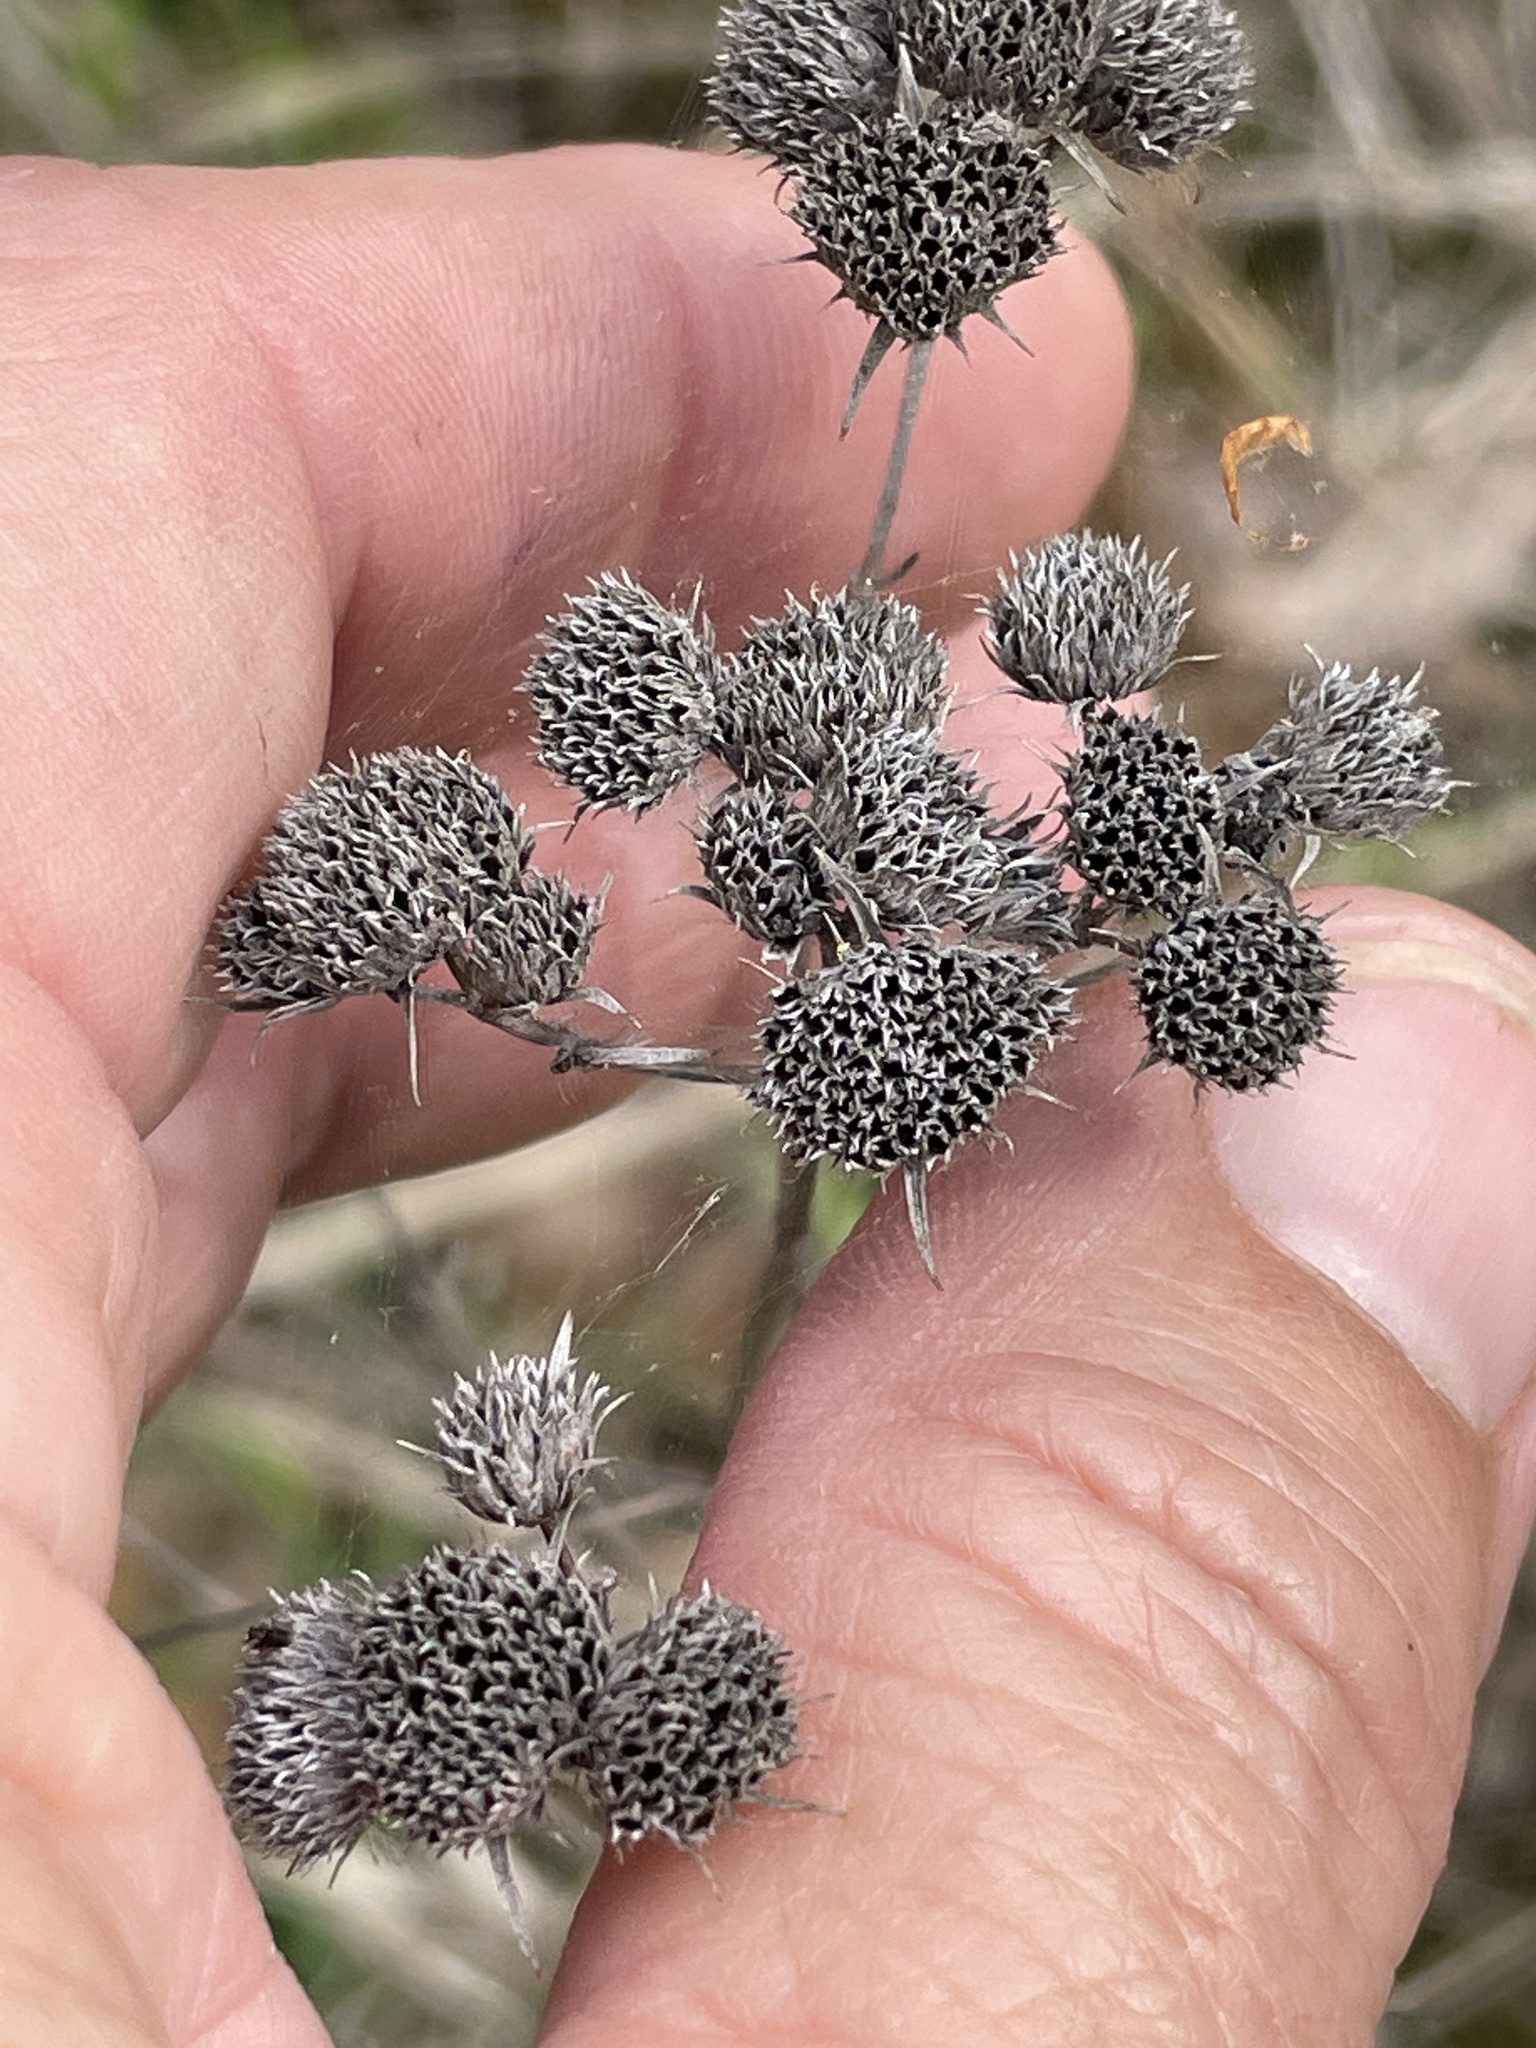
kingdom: Plantae
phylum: Tracheophyta
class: Magnoliopsida
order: Lamiales
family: Lamiaceae
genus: Pycnanthemum
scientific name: Pycnanthemum tenuifolium
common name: Narrow-leaf mountain-mint
